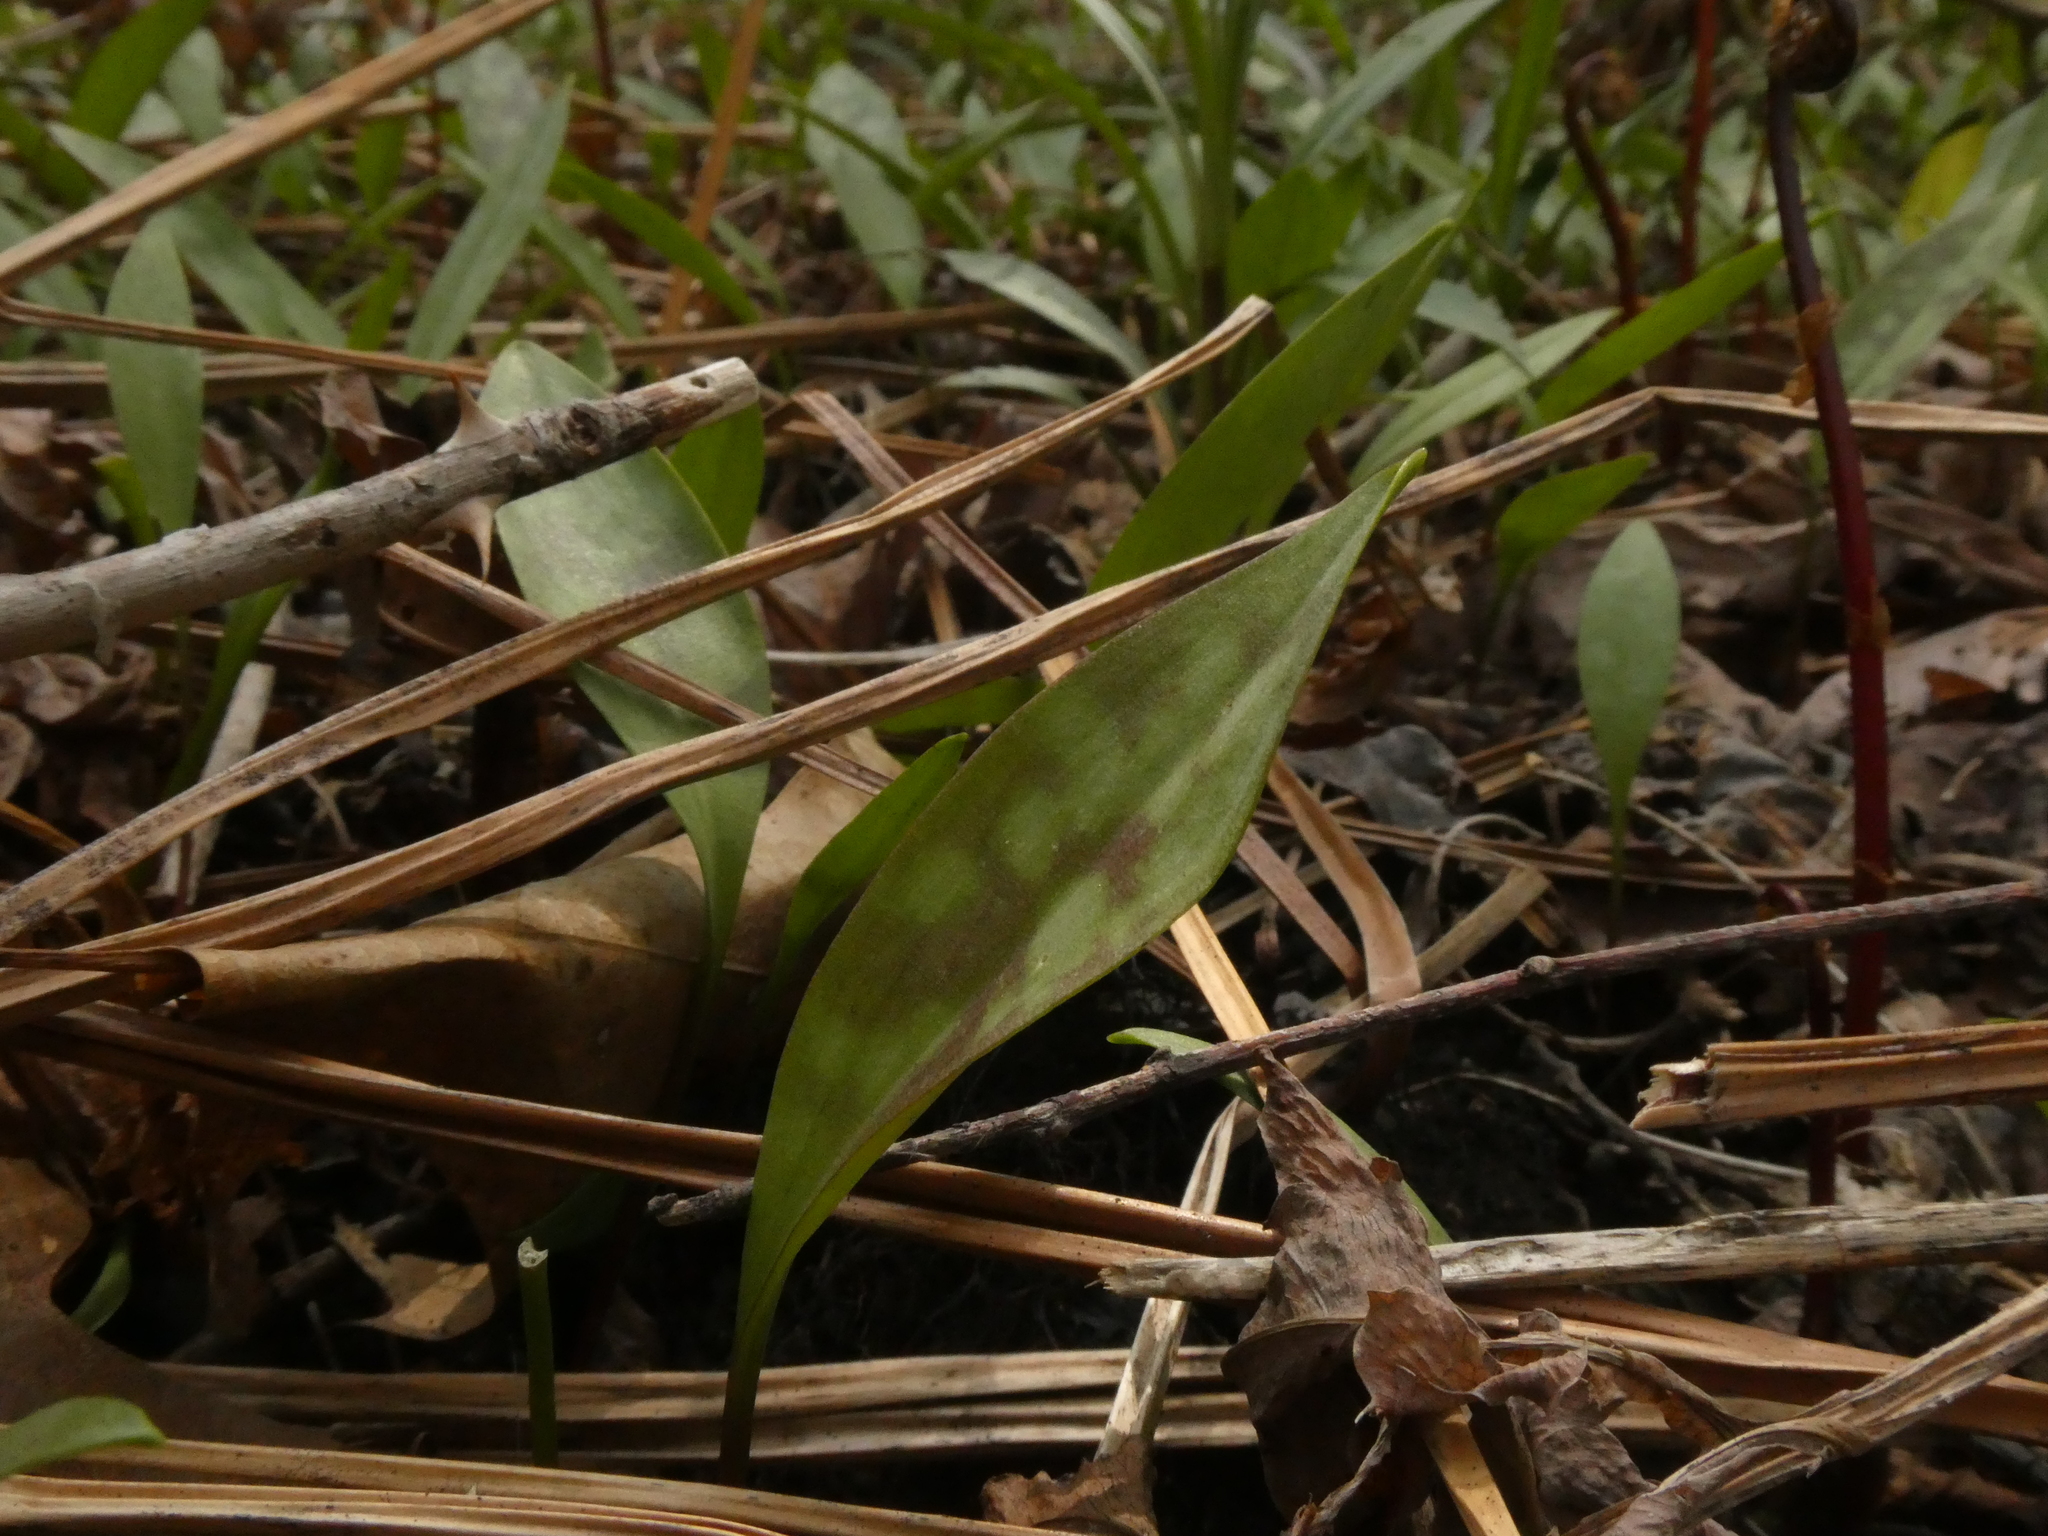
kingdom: Plantae
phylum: Tracheophyta
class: Liliopsida
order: Liliales
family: Liliaceae
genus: Erythronium
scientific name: Erythronium americanum
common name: Yellow adder's-tongue
